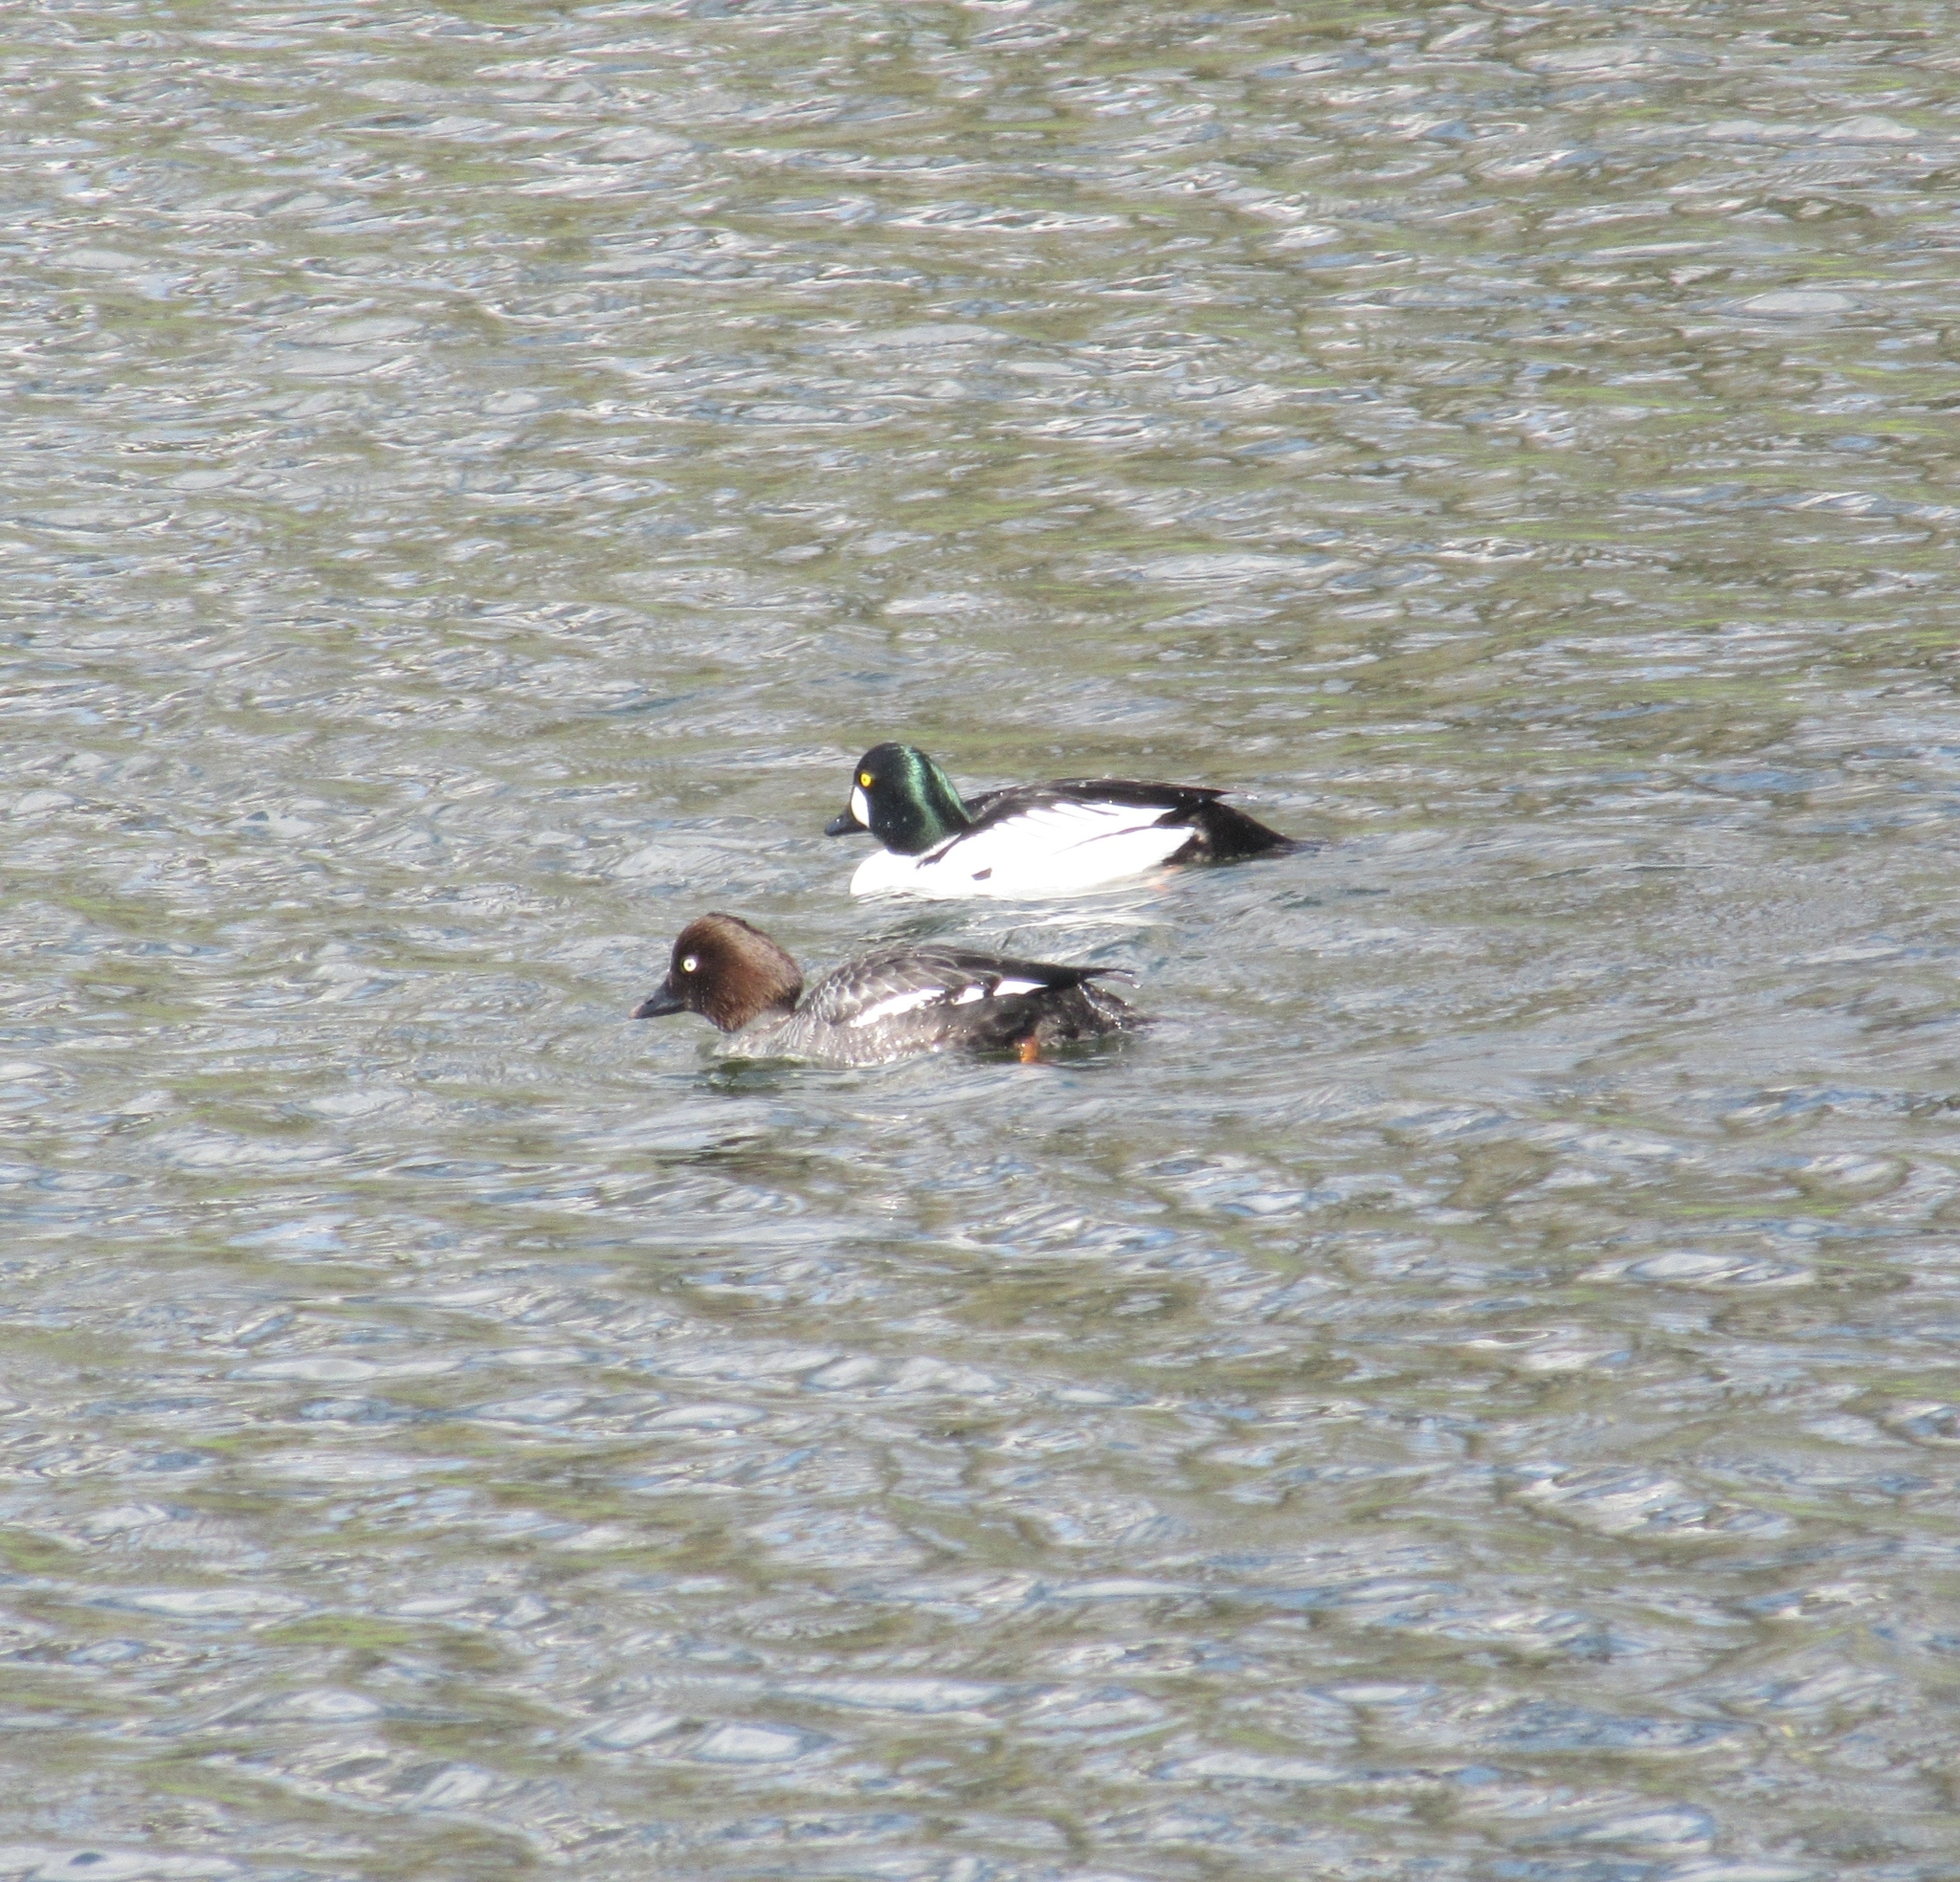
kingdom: Animalia
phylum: Chordata
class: Aves
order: Anseriformes
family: Anatidae
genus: Bucephala
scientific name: Bucephala clangula
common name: Common goldeneye
